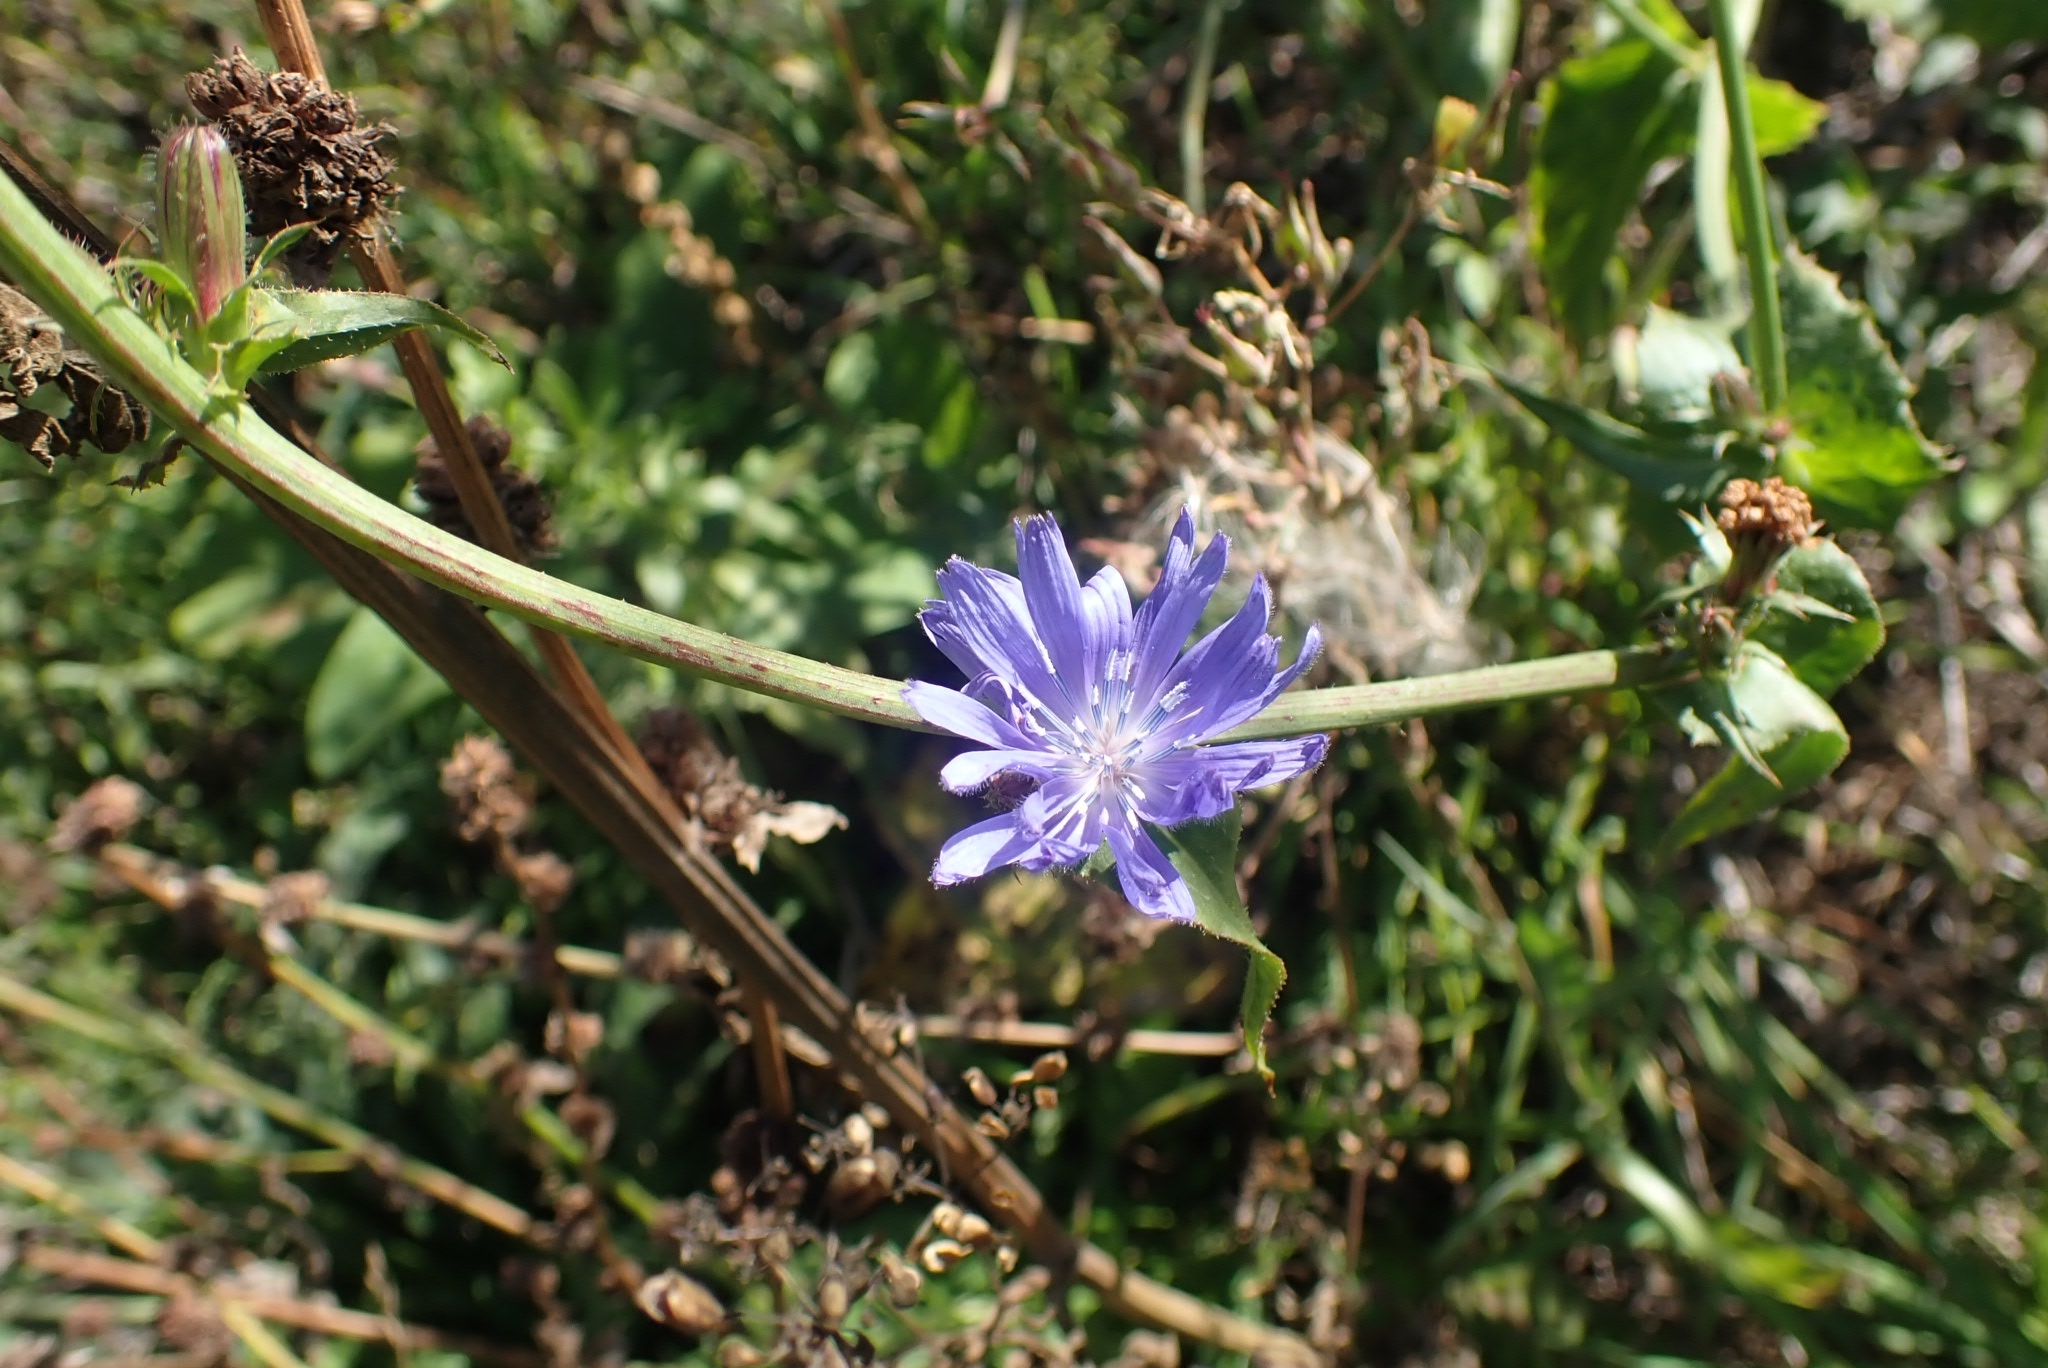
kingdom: Plantae
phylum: Tracheophyta
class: Magnoliopsida
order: Asterales
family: Asteraceae
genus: Cichorium
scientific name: Cichorium intybus
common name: Chicory
